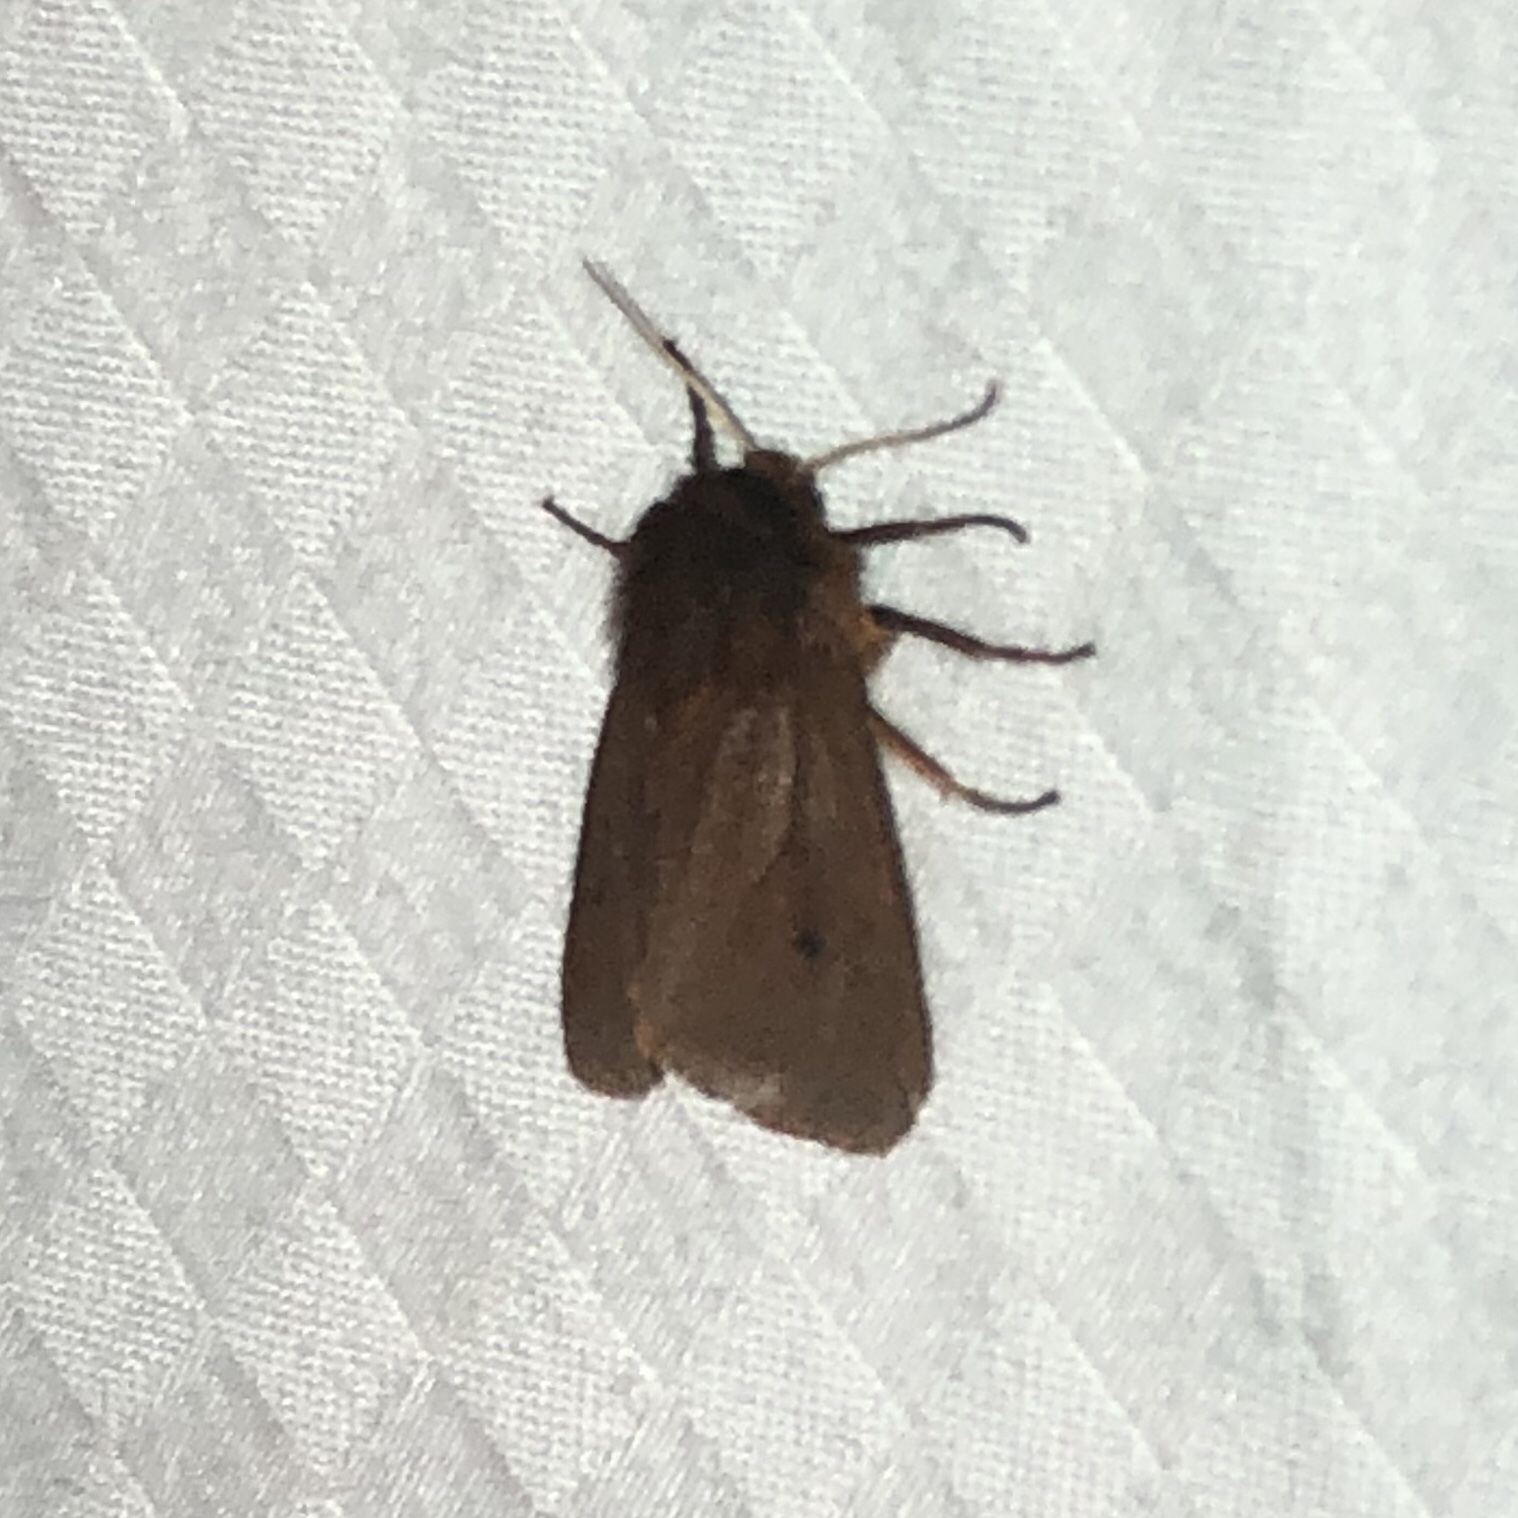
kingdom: Animalia
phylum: Arthropoda
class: Insecta
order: Lepidoptera
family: Erebidae
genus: Phragmatobia
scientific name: Phragmatobia fuliginosa
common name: Ruby tiger
